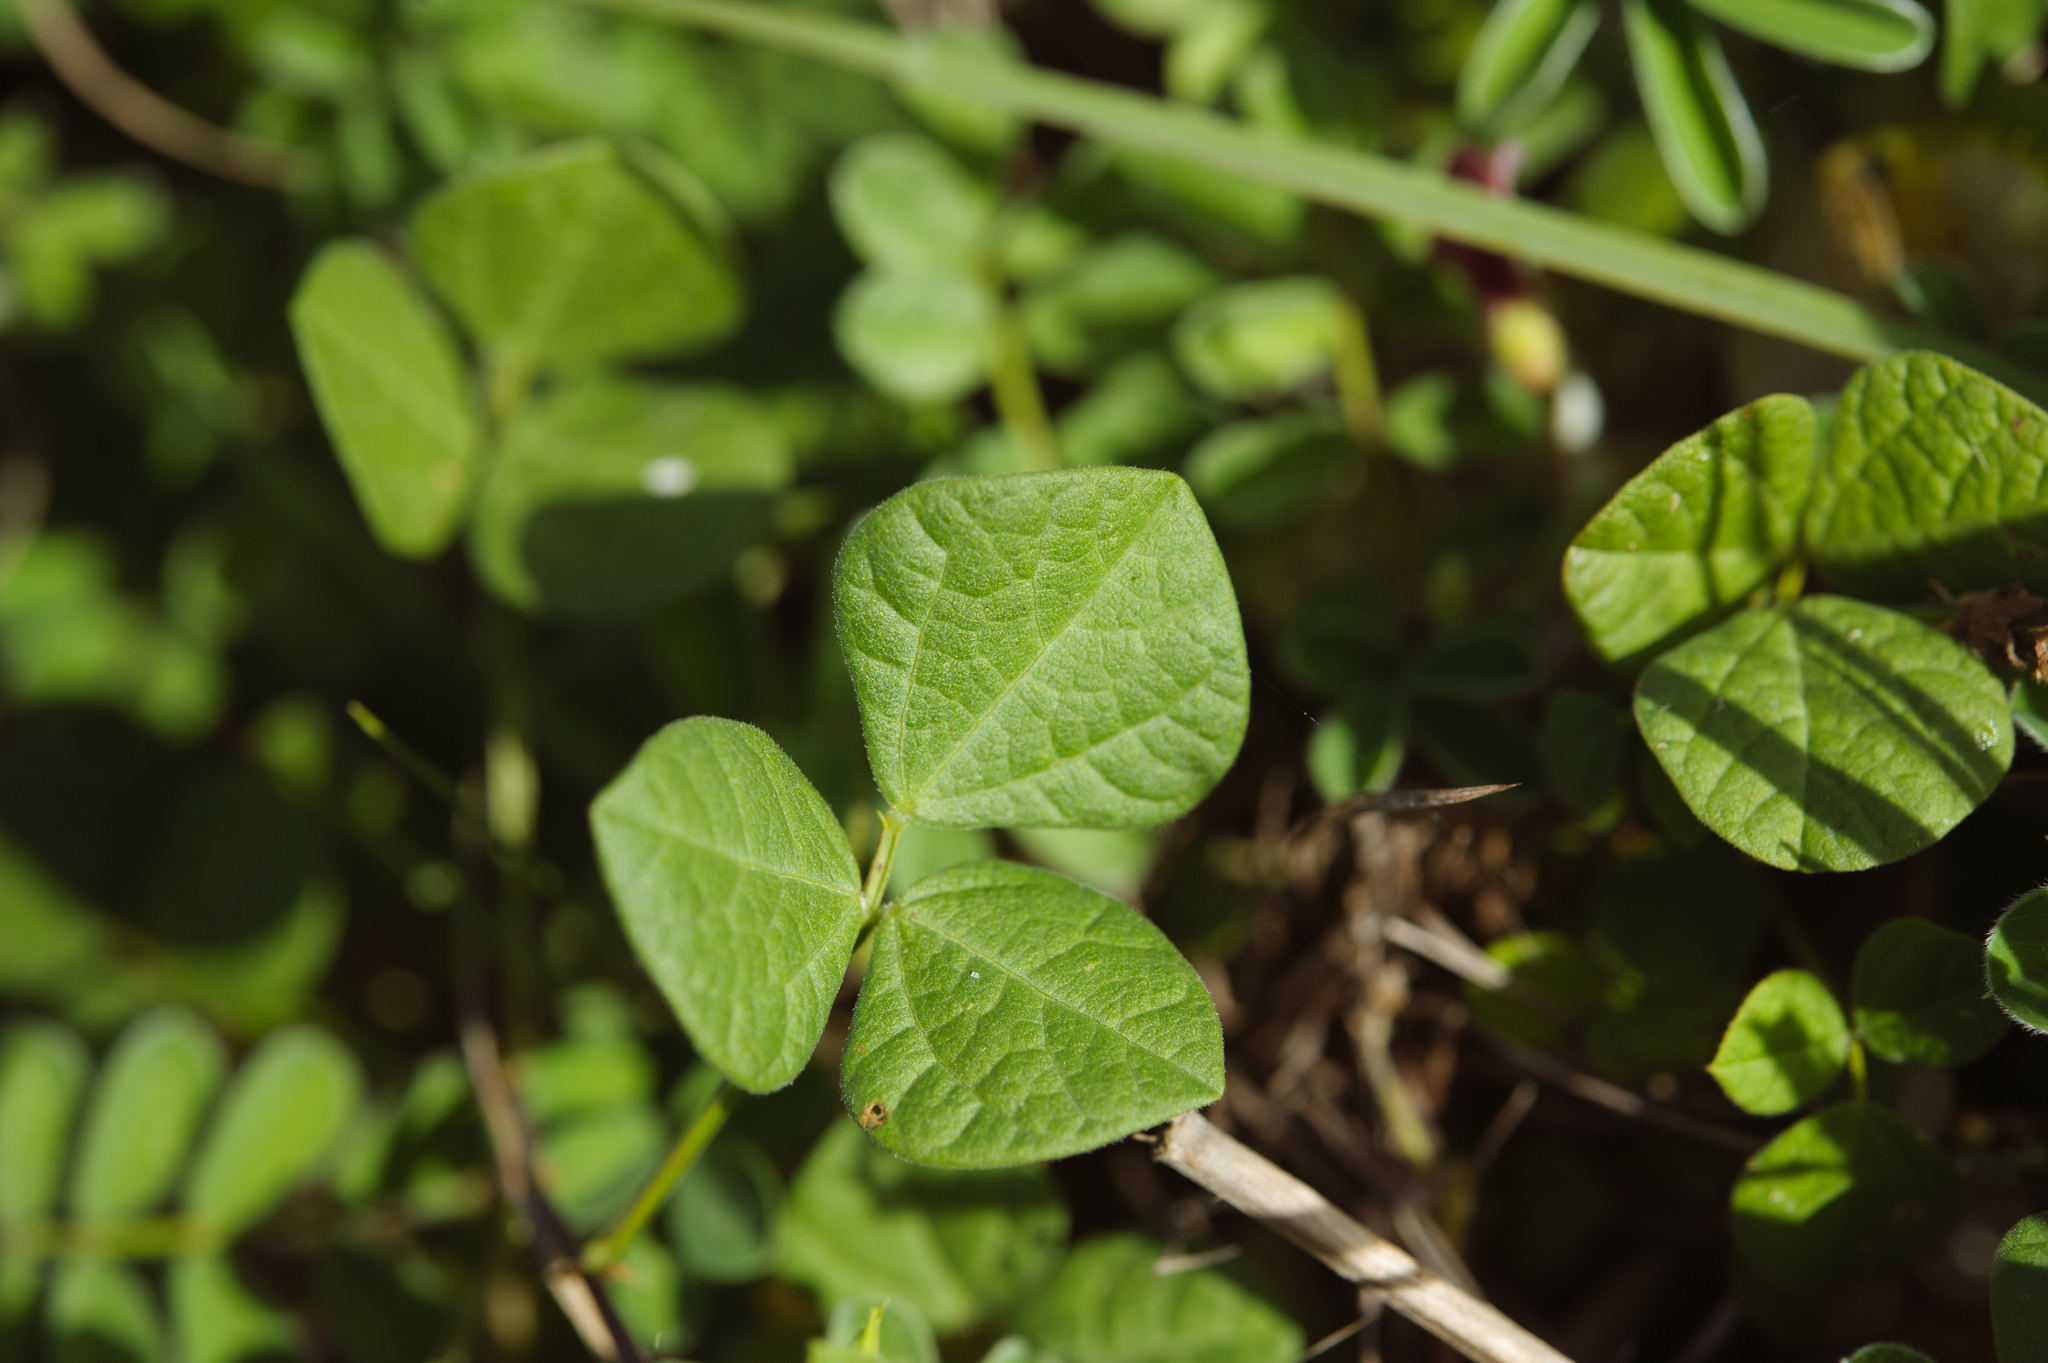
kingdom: Plantae
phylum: Tracheophyta
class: Magnoliopsida
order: Fabales
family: Fabaceae
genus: Rhynchosia
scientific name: Rhynchosia minima
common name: Least snoutbean
